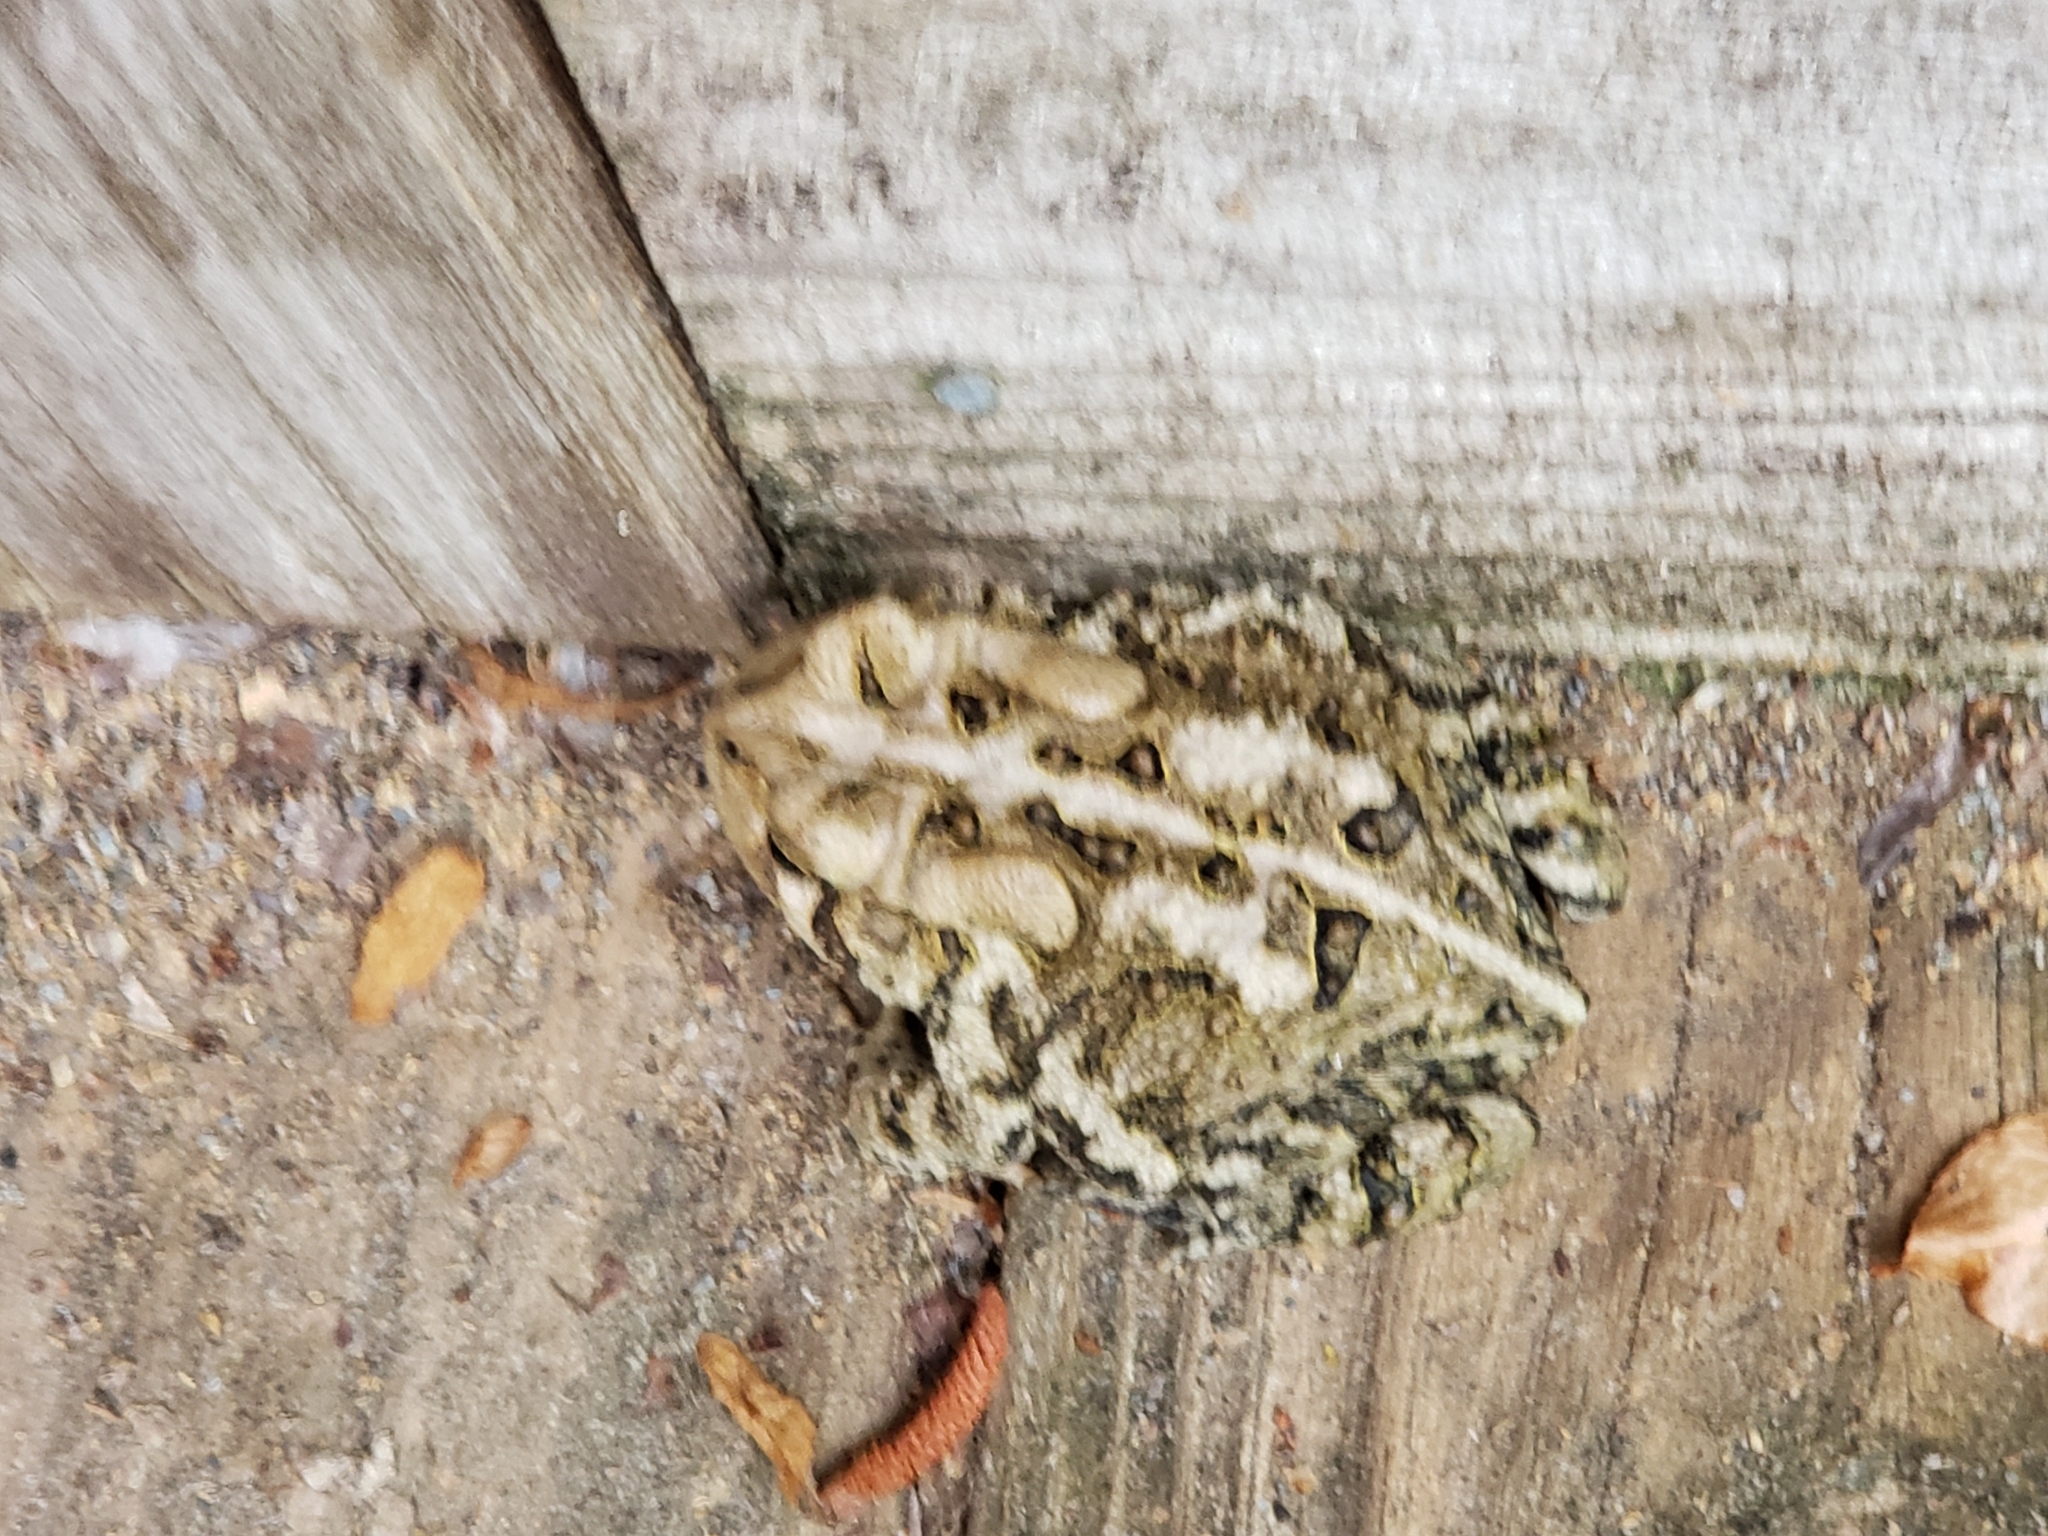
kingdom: Animalia
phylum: Chordata
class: Amphibia
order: Anura
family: Bufonidae
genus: Anaxyrus
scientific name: Anaxyrus fowleri
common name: Fowler's toad
